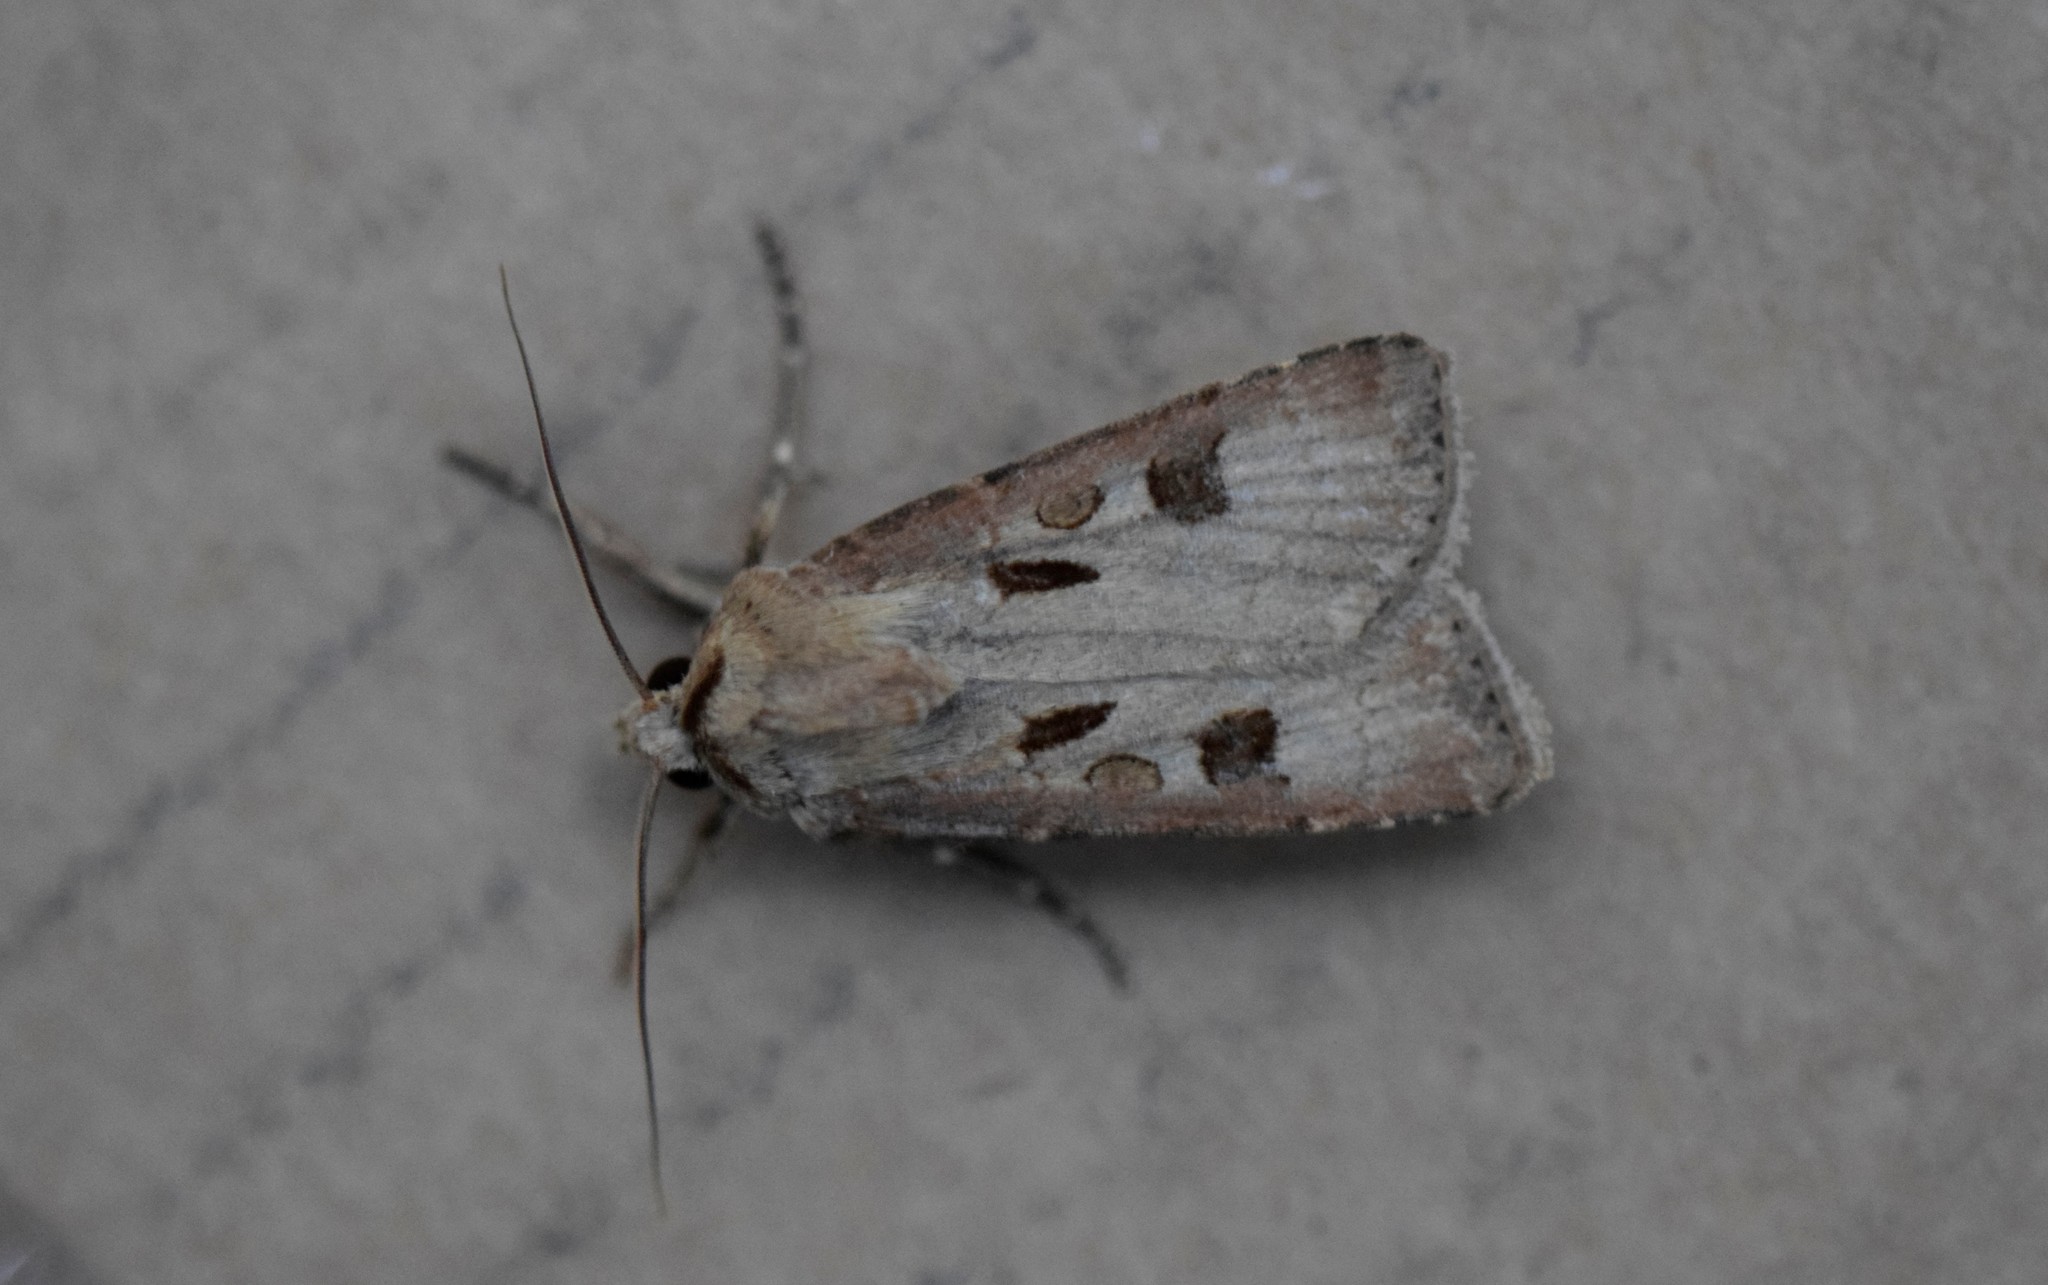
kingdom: Animalia
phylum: Arthropoda
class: Insecta
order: Lepidoptera
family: Noctuidae
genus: Agrotis
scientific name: Agrotis exclamationis
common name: Heart and dart
